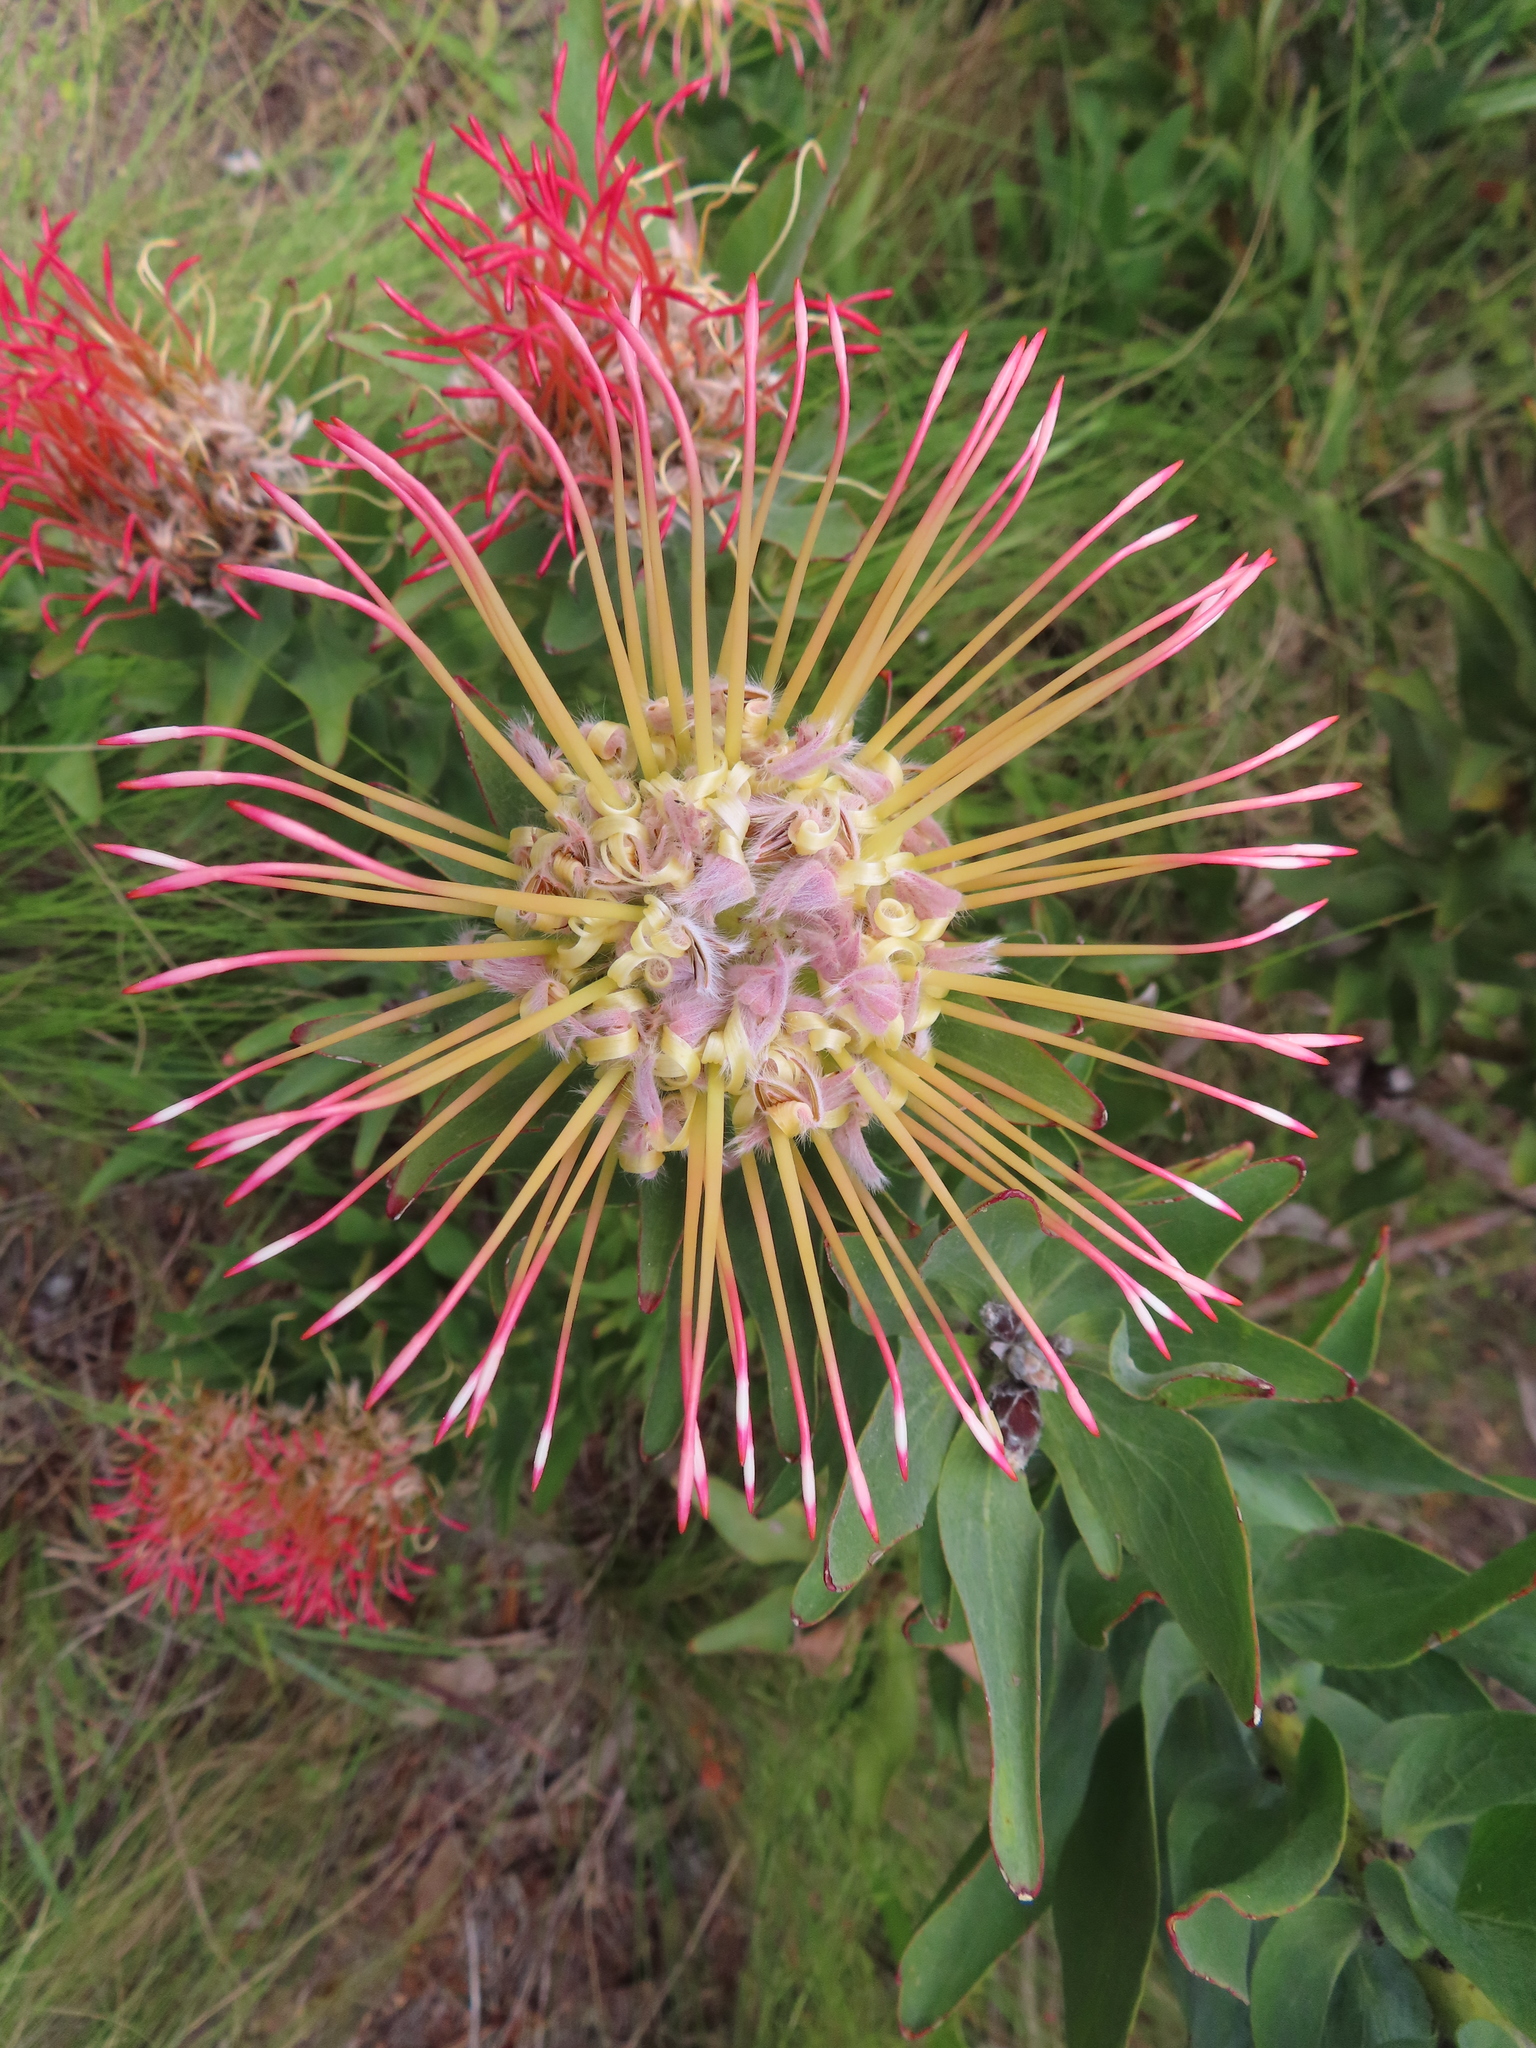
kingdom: Plantae
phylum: Tracheophyta
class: Magnoliopsida
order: Proteales
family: Proteaceae
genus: Leucospermum
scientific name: Leucospermum gueinzii
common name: Kloof fountain pincushion
